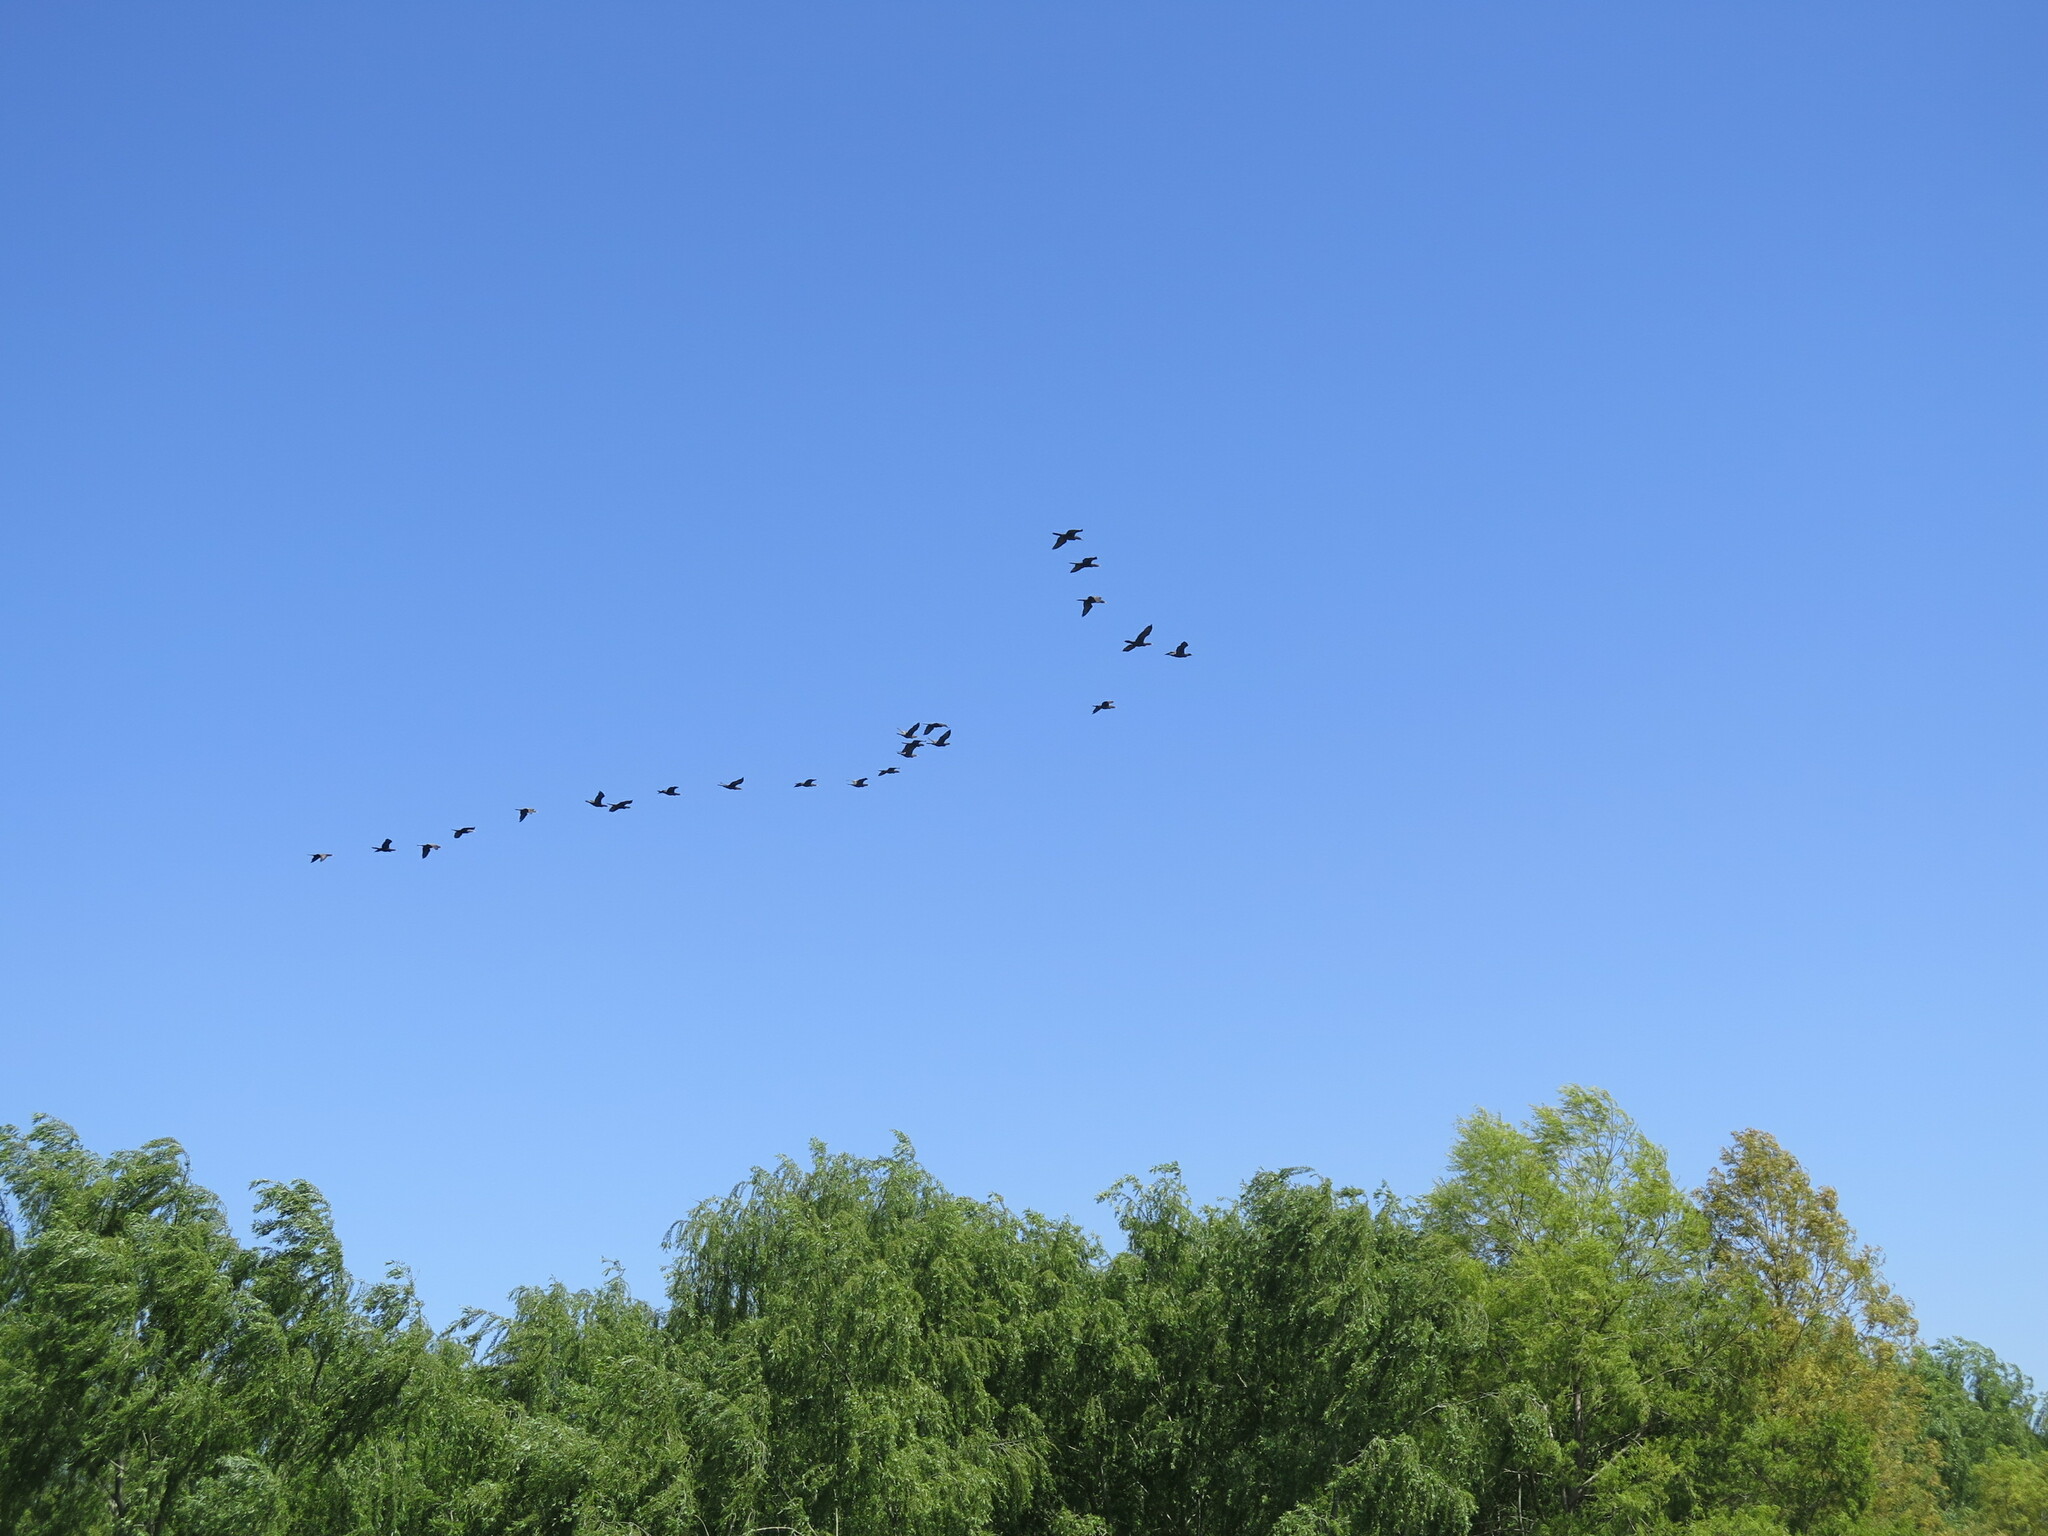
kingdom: Animalia
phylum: Chordata
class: Aves
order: Suliformes
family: Phalacrocoracidae
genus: Phalacrocorax
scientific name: Phalacrocorax brasilianus
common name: Neotropic cormorant
